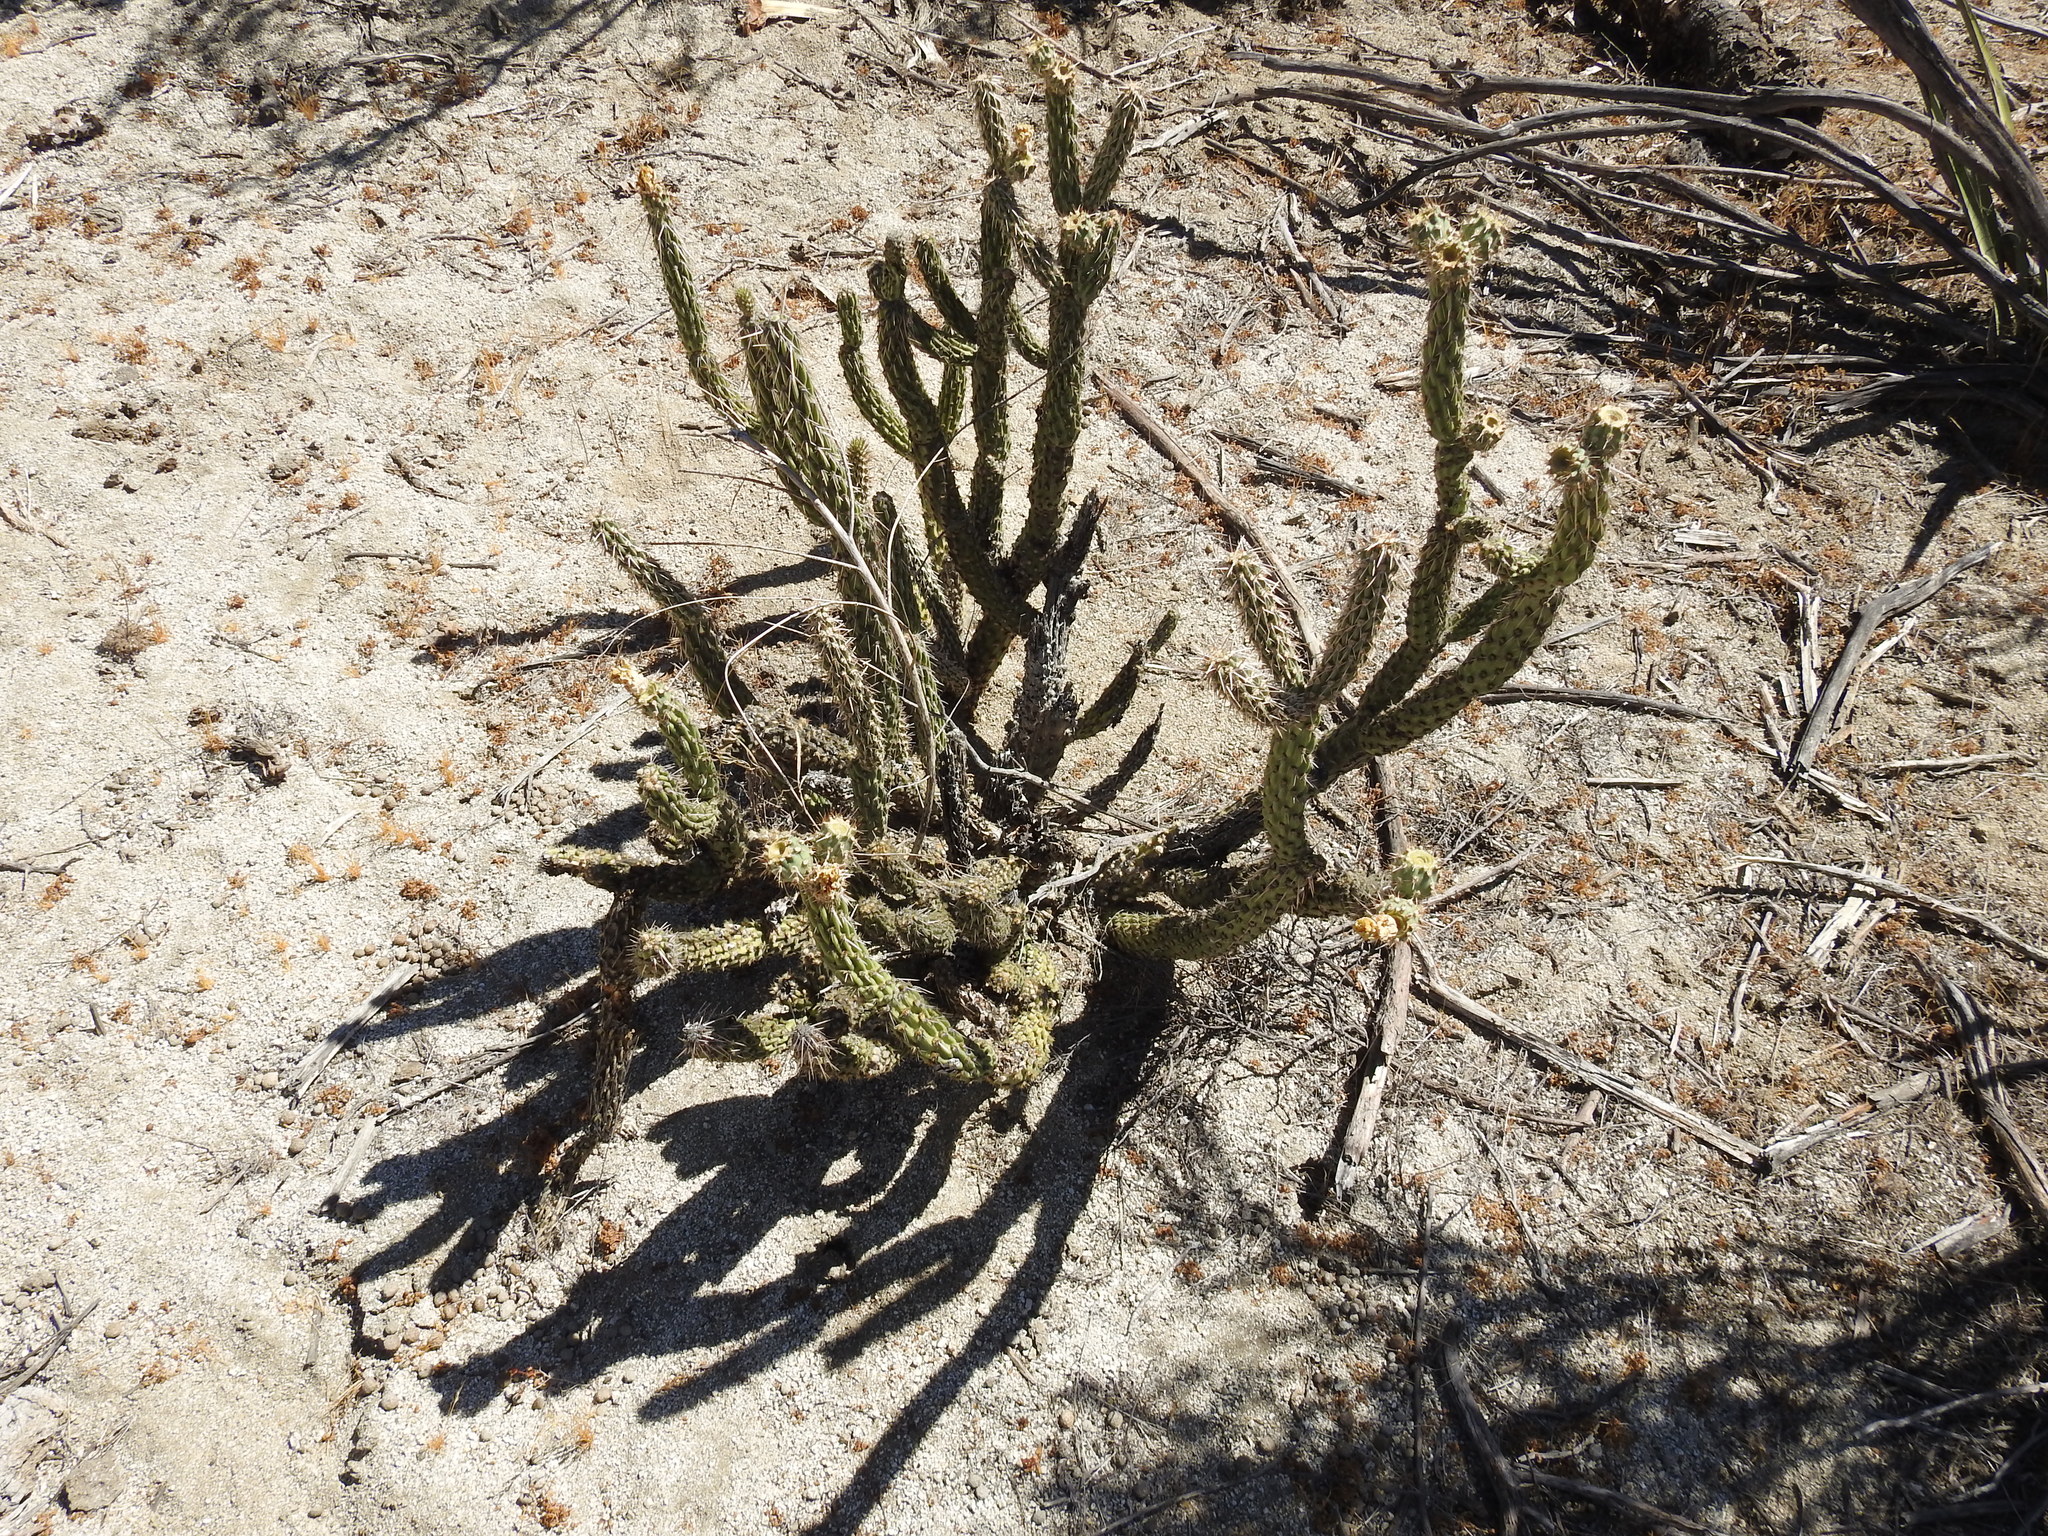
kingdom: Plantae
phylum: Tracheophyta
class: Magnoliopsida
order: Caryophyllales
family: Cactaceae
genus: Cylindropuntia
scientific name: Cylindropuntia californica
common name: Snake cholla
